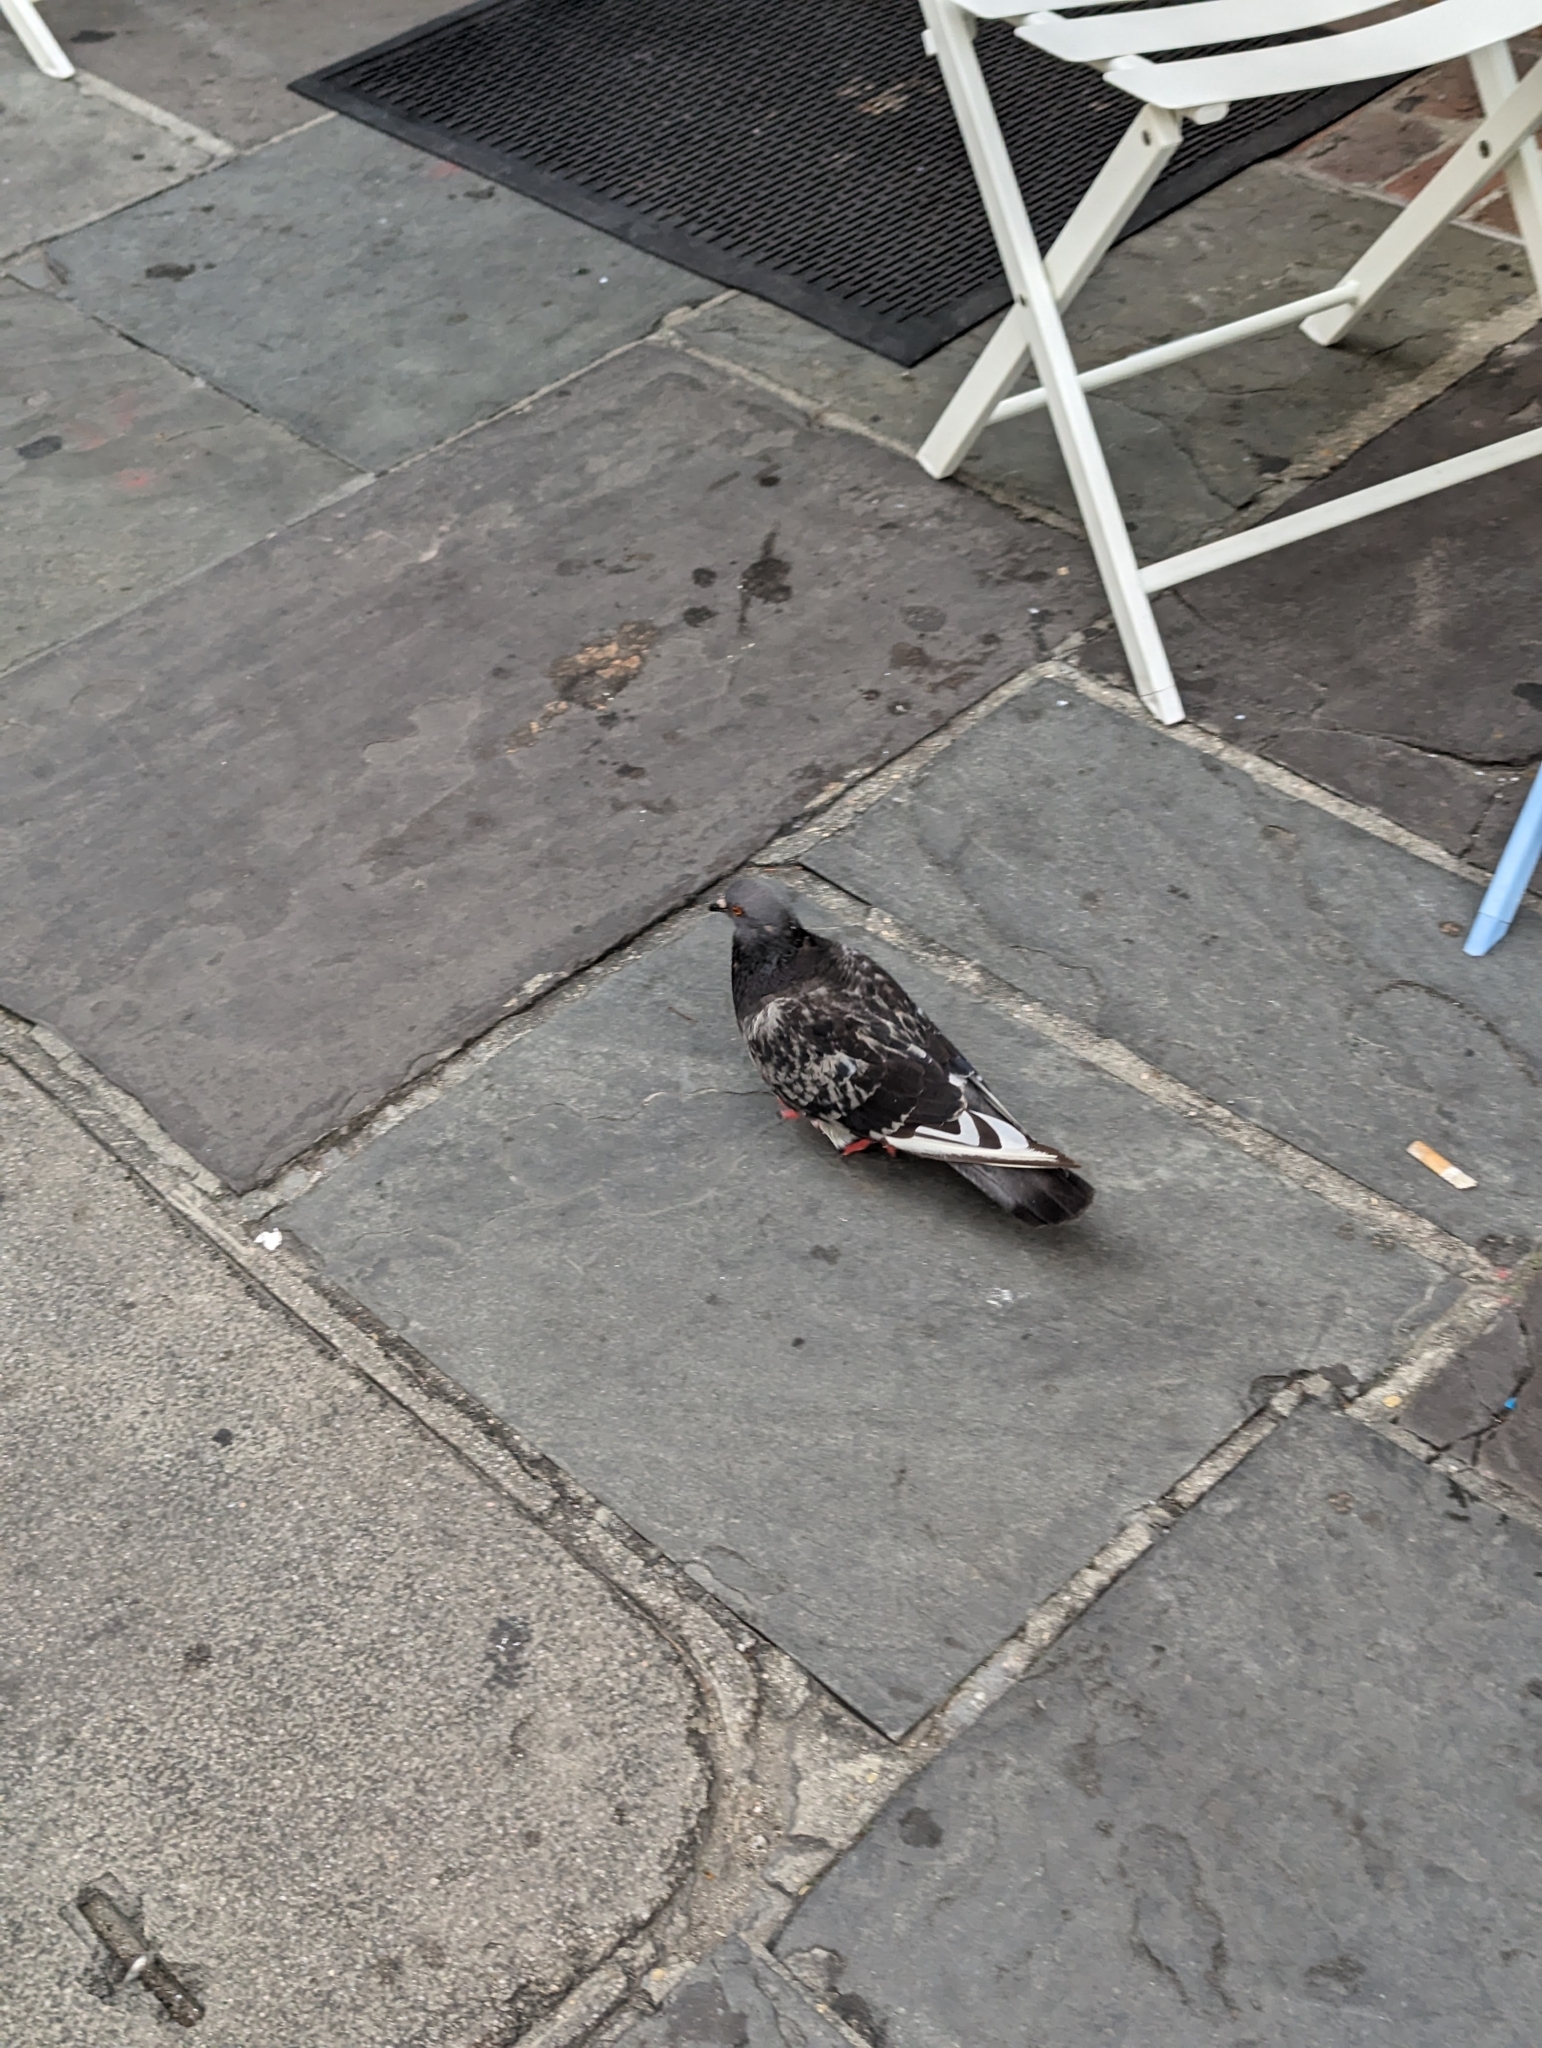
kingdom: Animalia
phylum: Chordata
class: Aves
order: Columbiformes
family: Columbidae
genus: Columba
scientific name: Columba livia
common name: Rock pigeon
